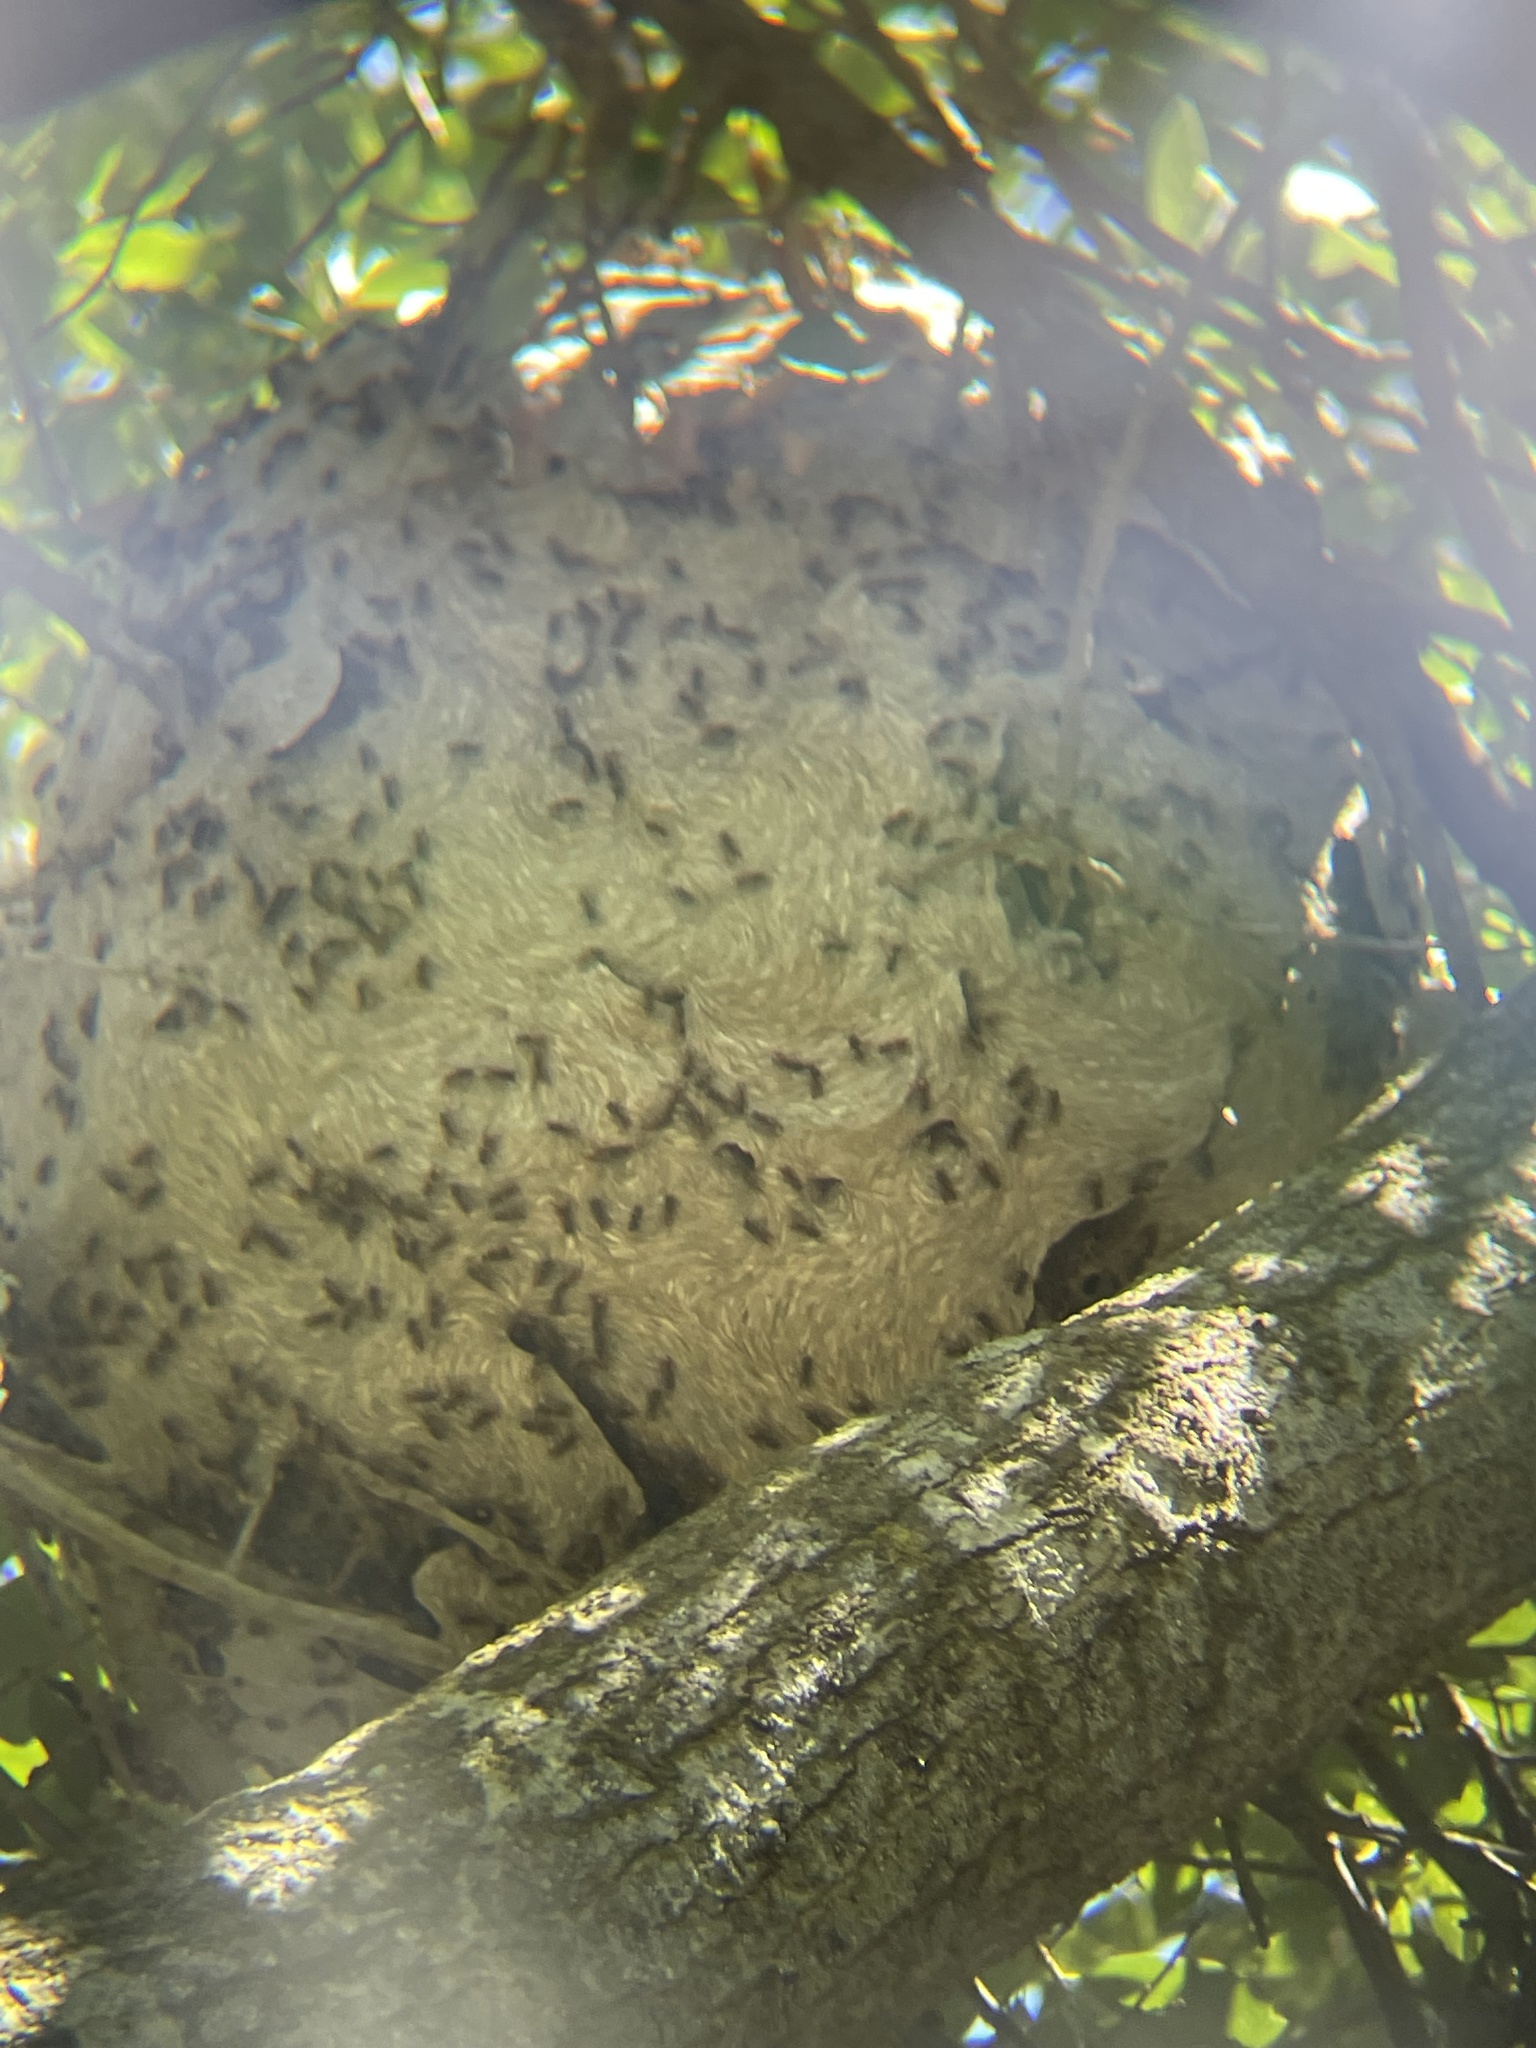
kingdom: Animalia
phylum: Arthropoda
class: Insecta
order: Hymenoptera
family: Vespidae
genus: Brachygastra
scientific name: Brachygastra mellifica
